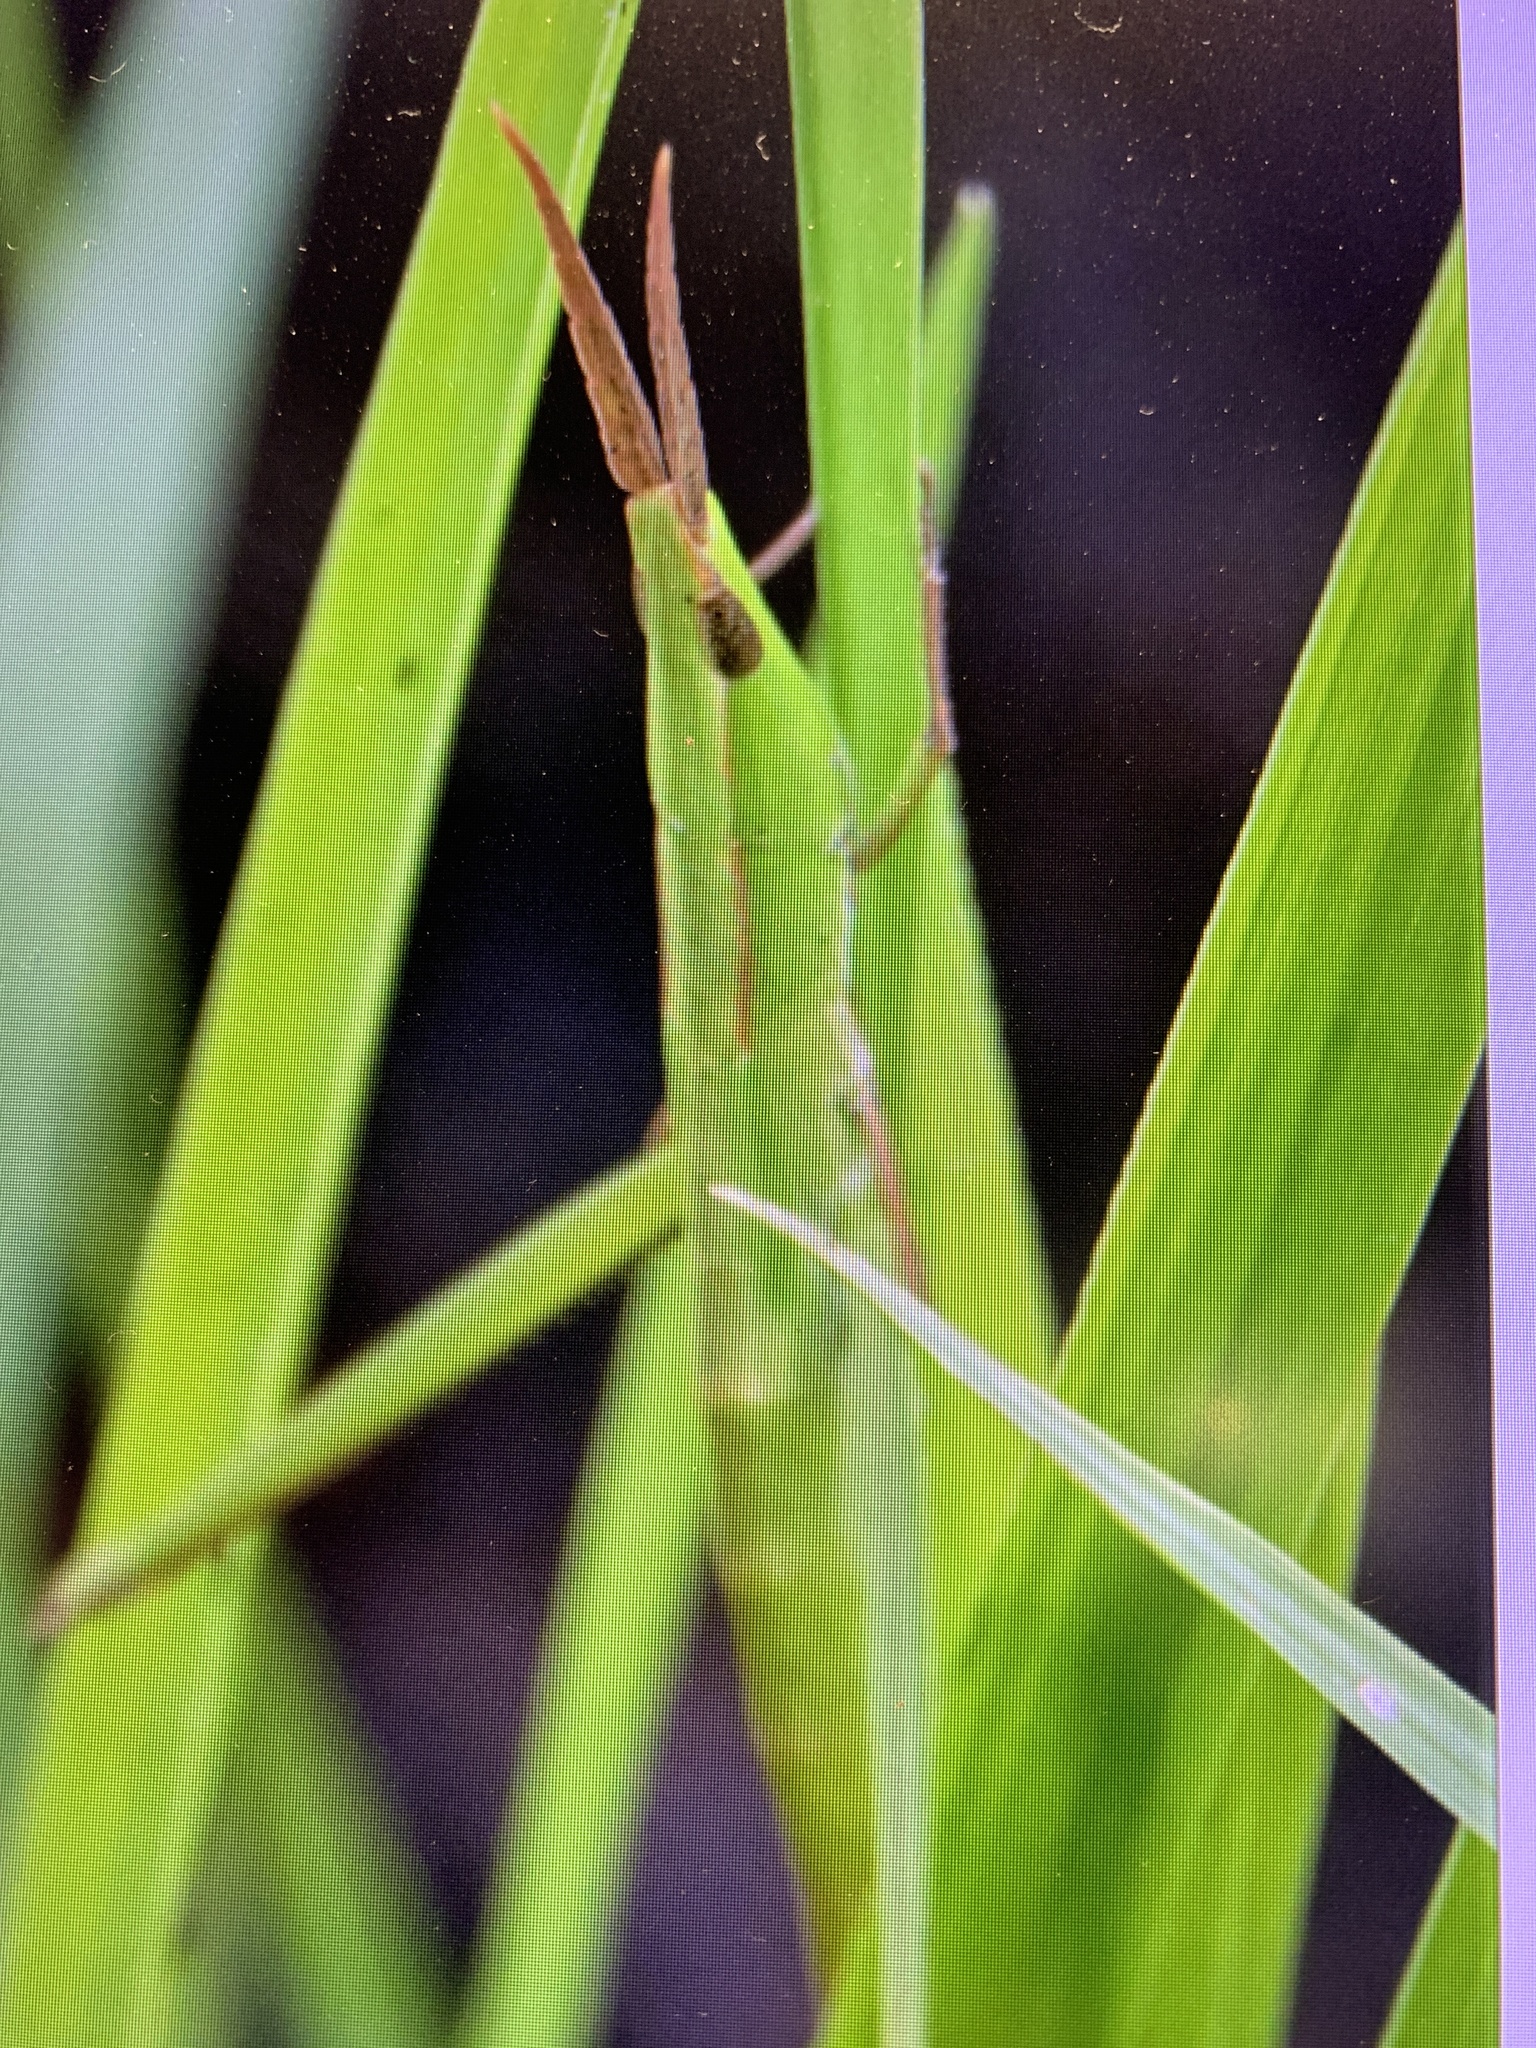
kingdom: Animalia
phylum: Arthropoda
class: Insecta
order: Orthoptera
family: Acrididae
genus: Achurum
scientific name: Achurum carinatum
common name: Long-headed toothpick grasshopper
